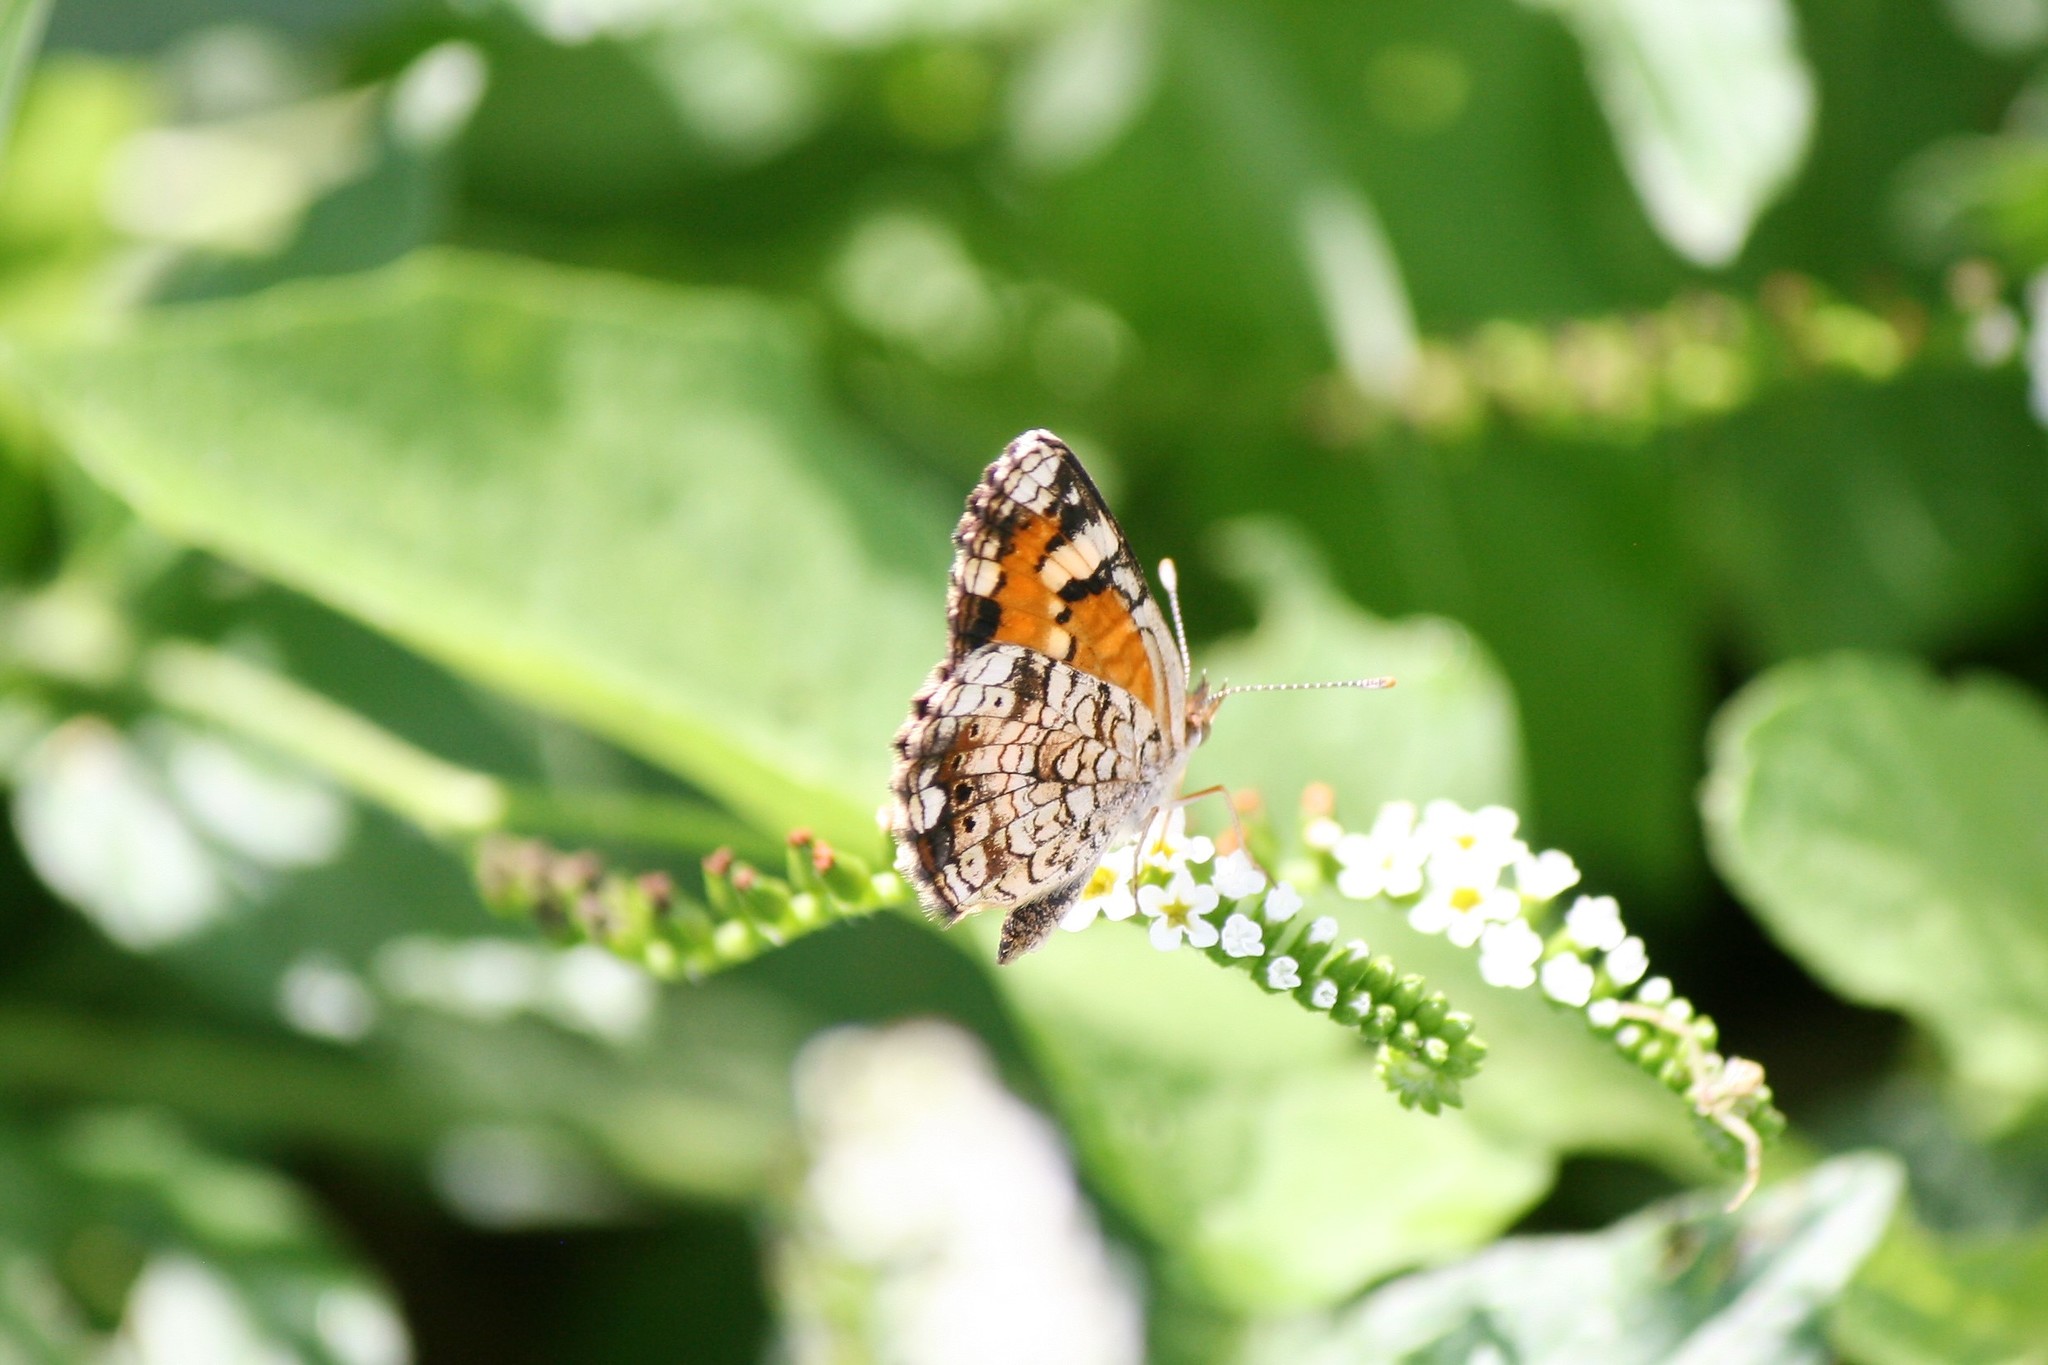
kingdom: Animalia
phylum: Arthropoda
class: Insecta
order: Lepidoptera
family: Nymphalidae
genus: Phyciodes
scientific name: Phyciodes phaon
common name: Phaon crescent
